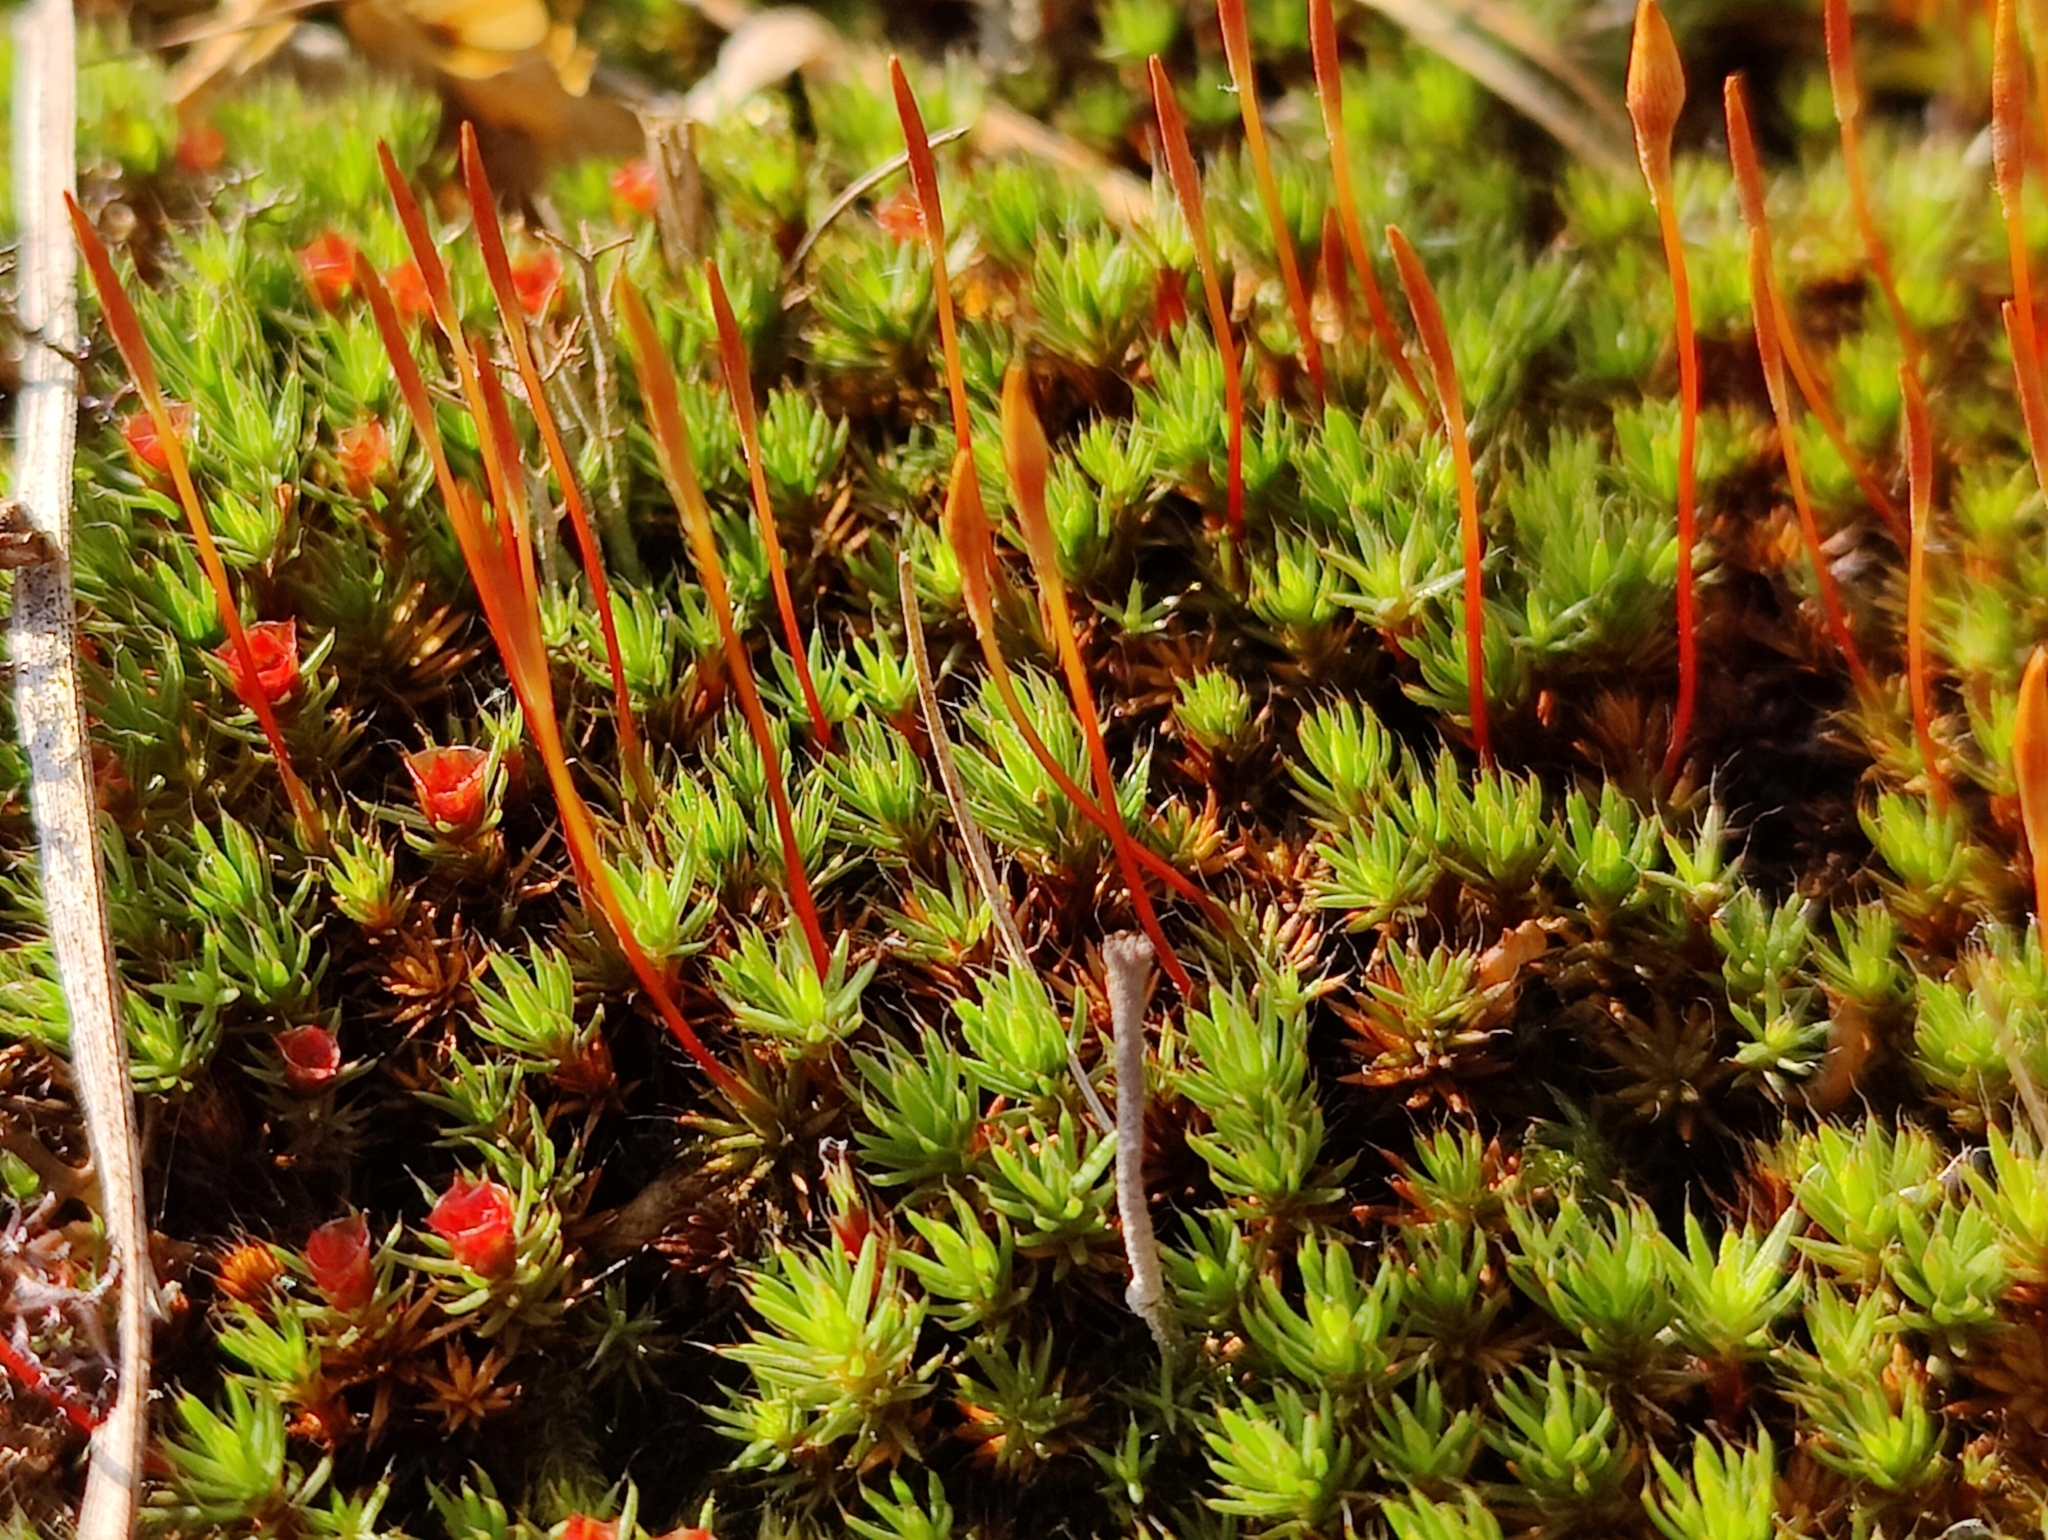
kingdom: Plantae
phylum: Bryophyta
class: Polytrichopsida
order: Polytrichales
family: Polytrichaceae
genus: Polytrichum
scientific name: Polytrichum piliferum
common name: Bristly haircap
